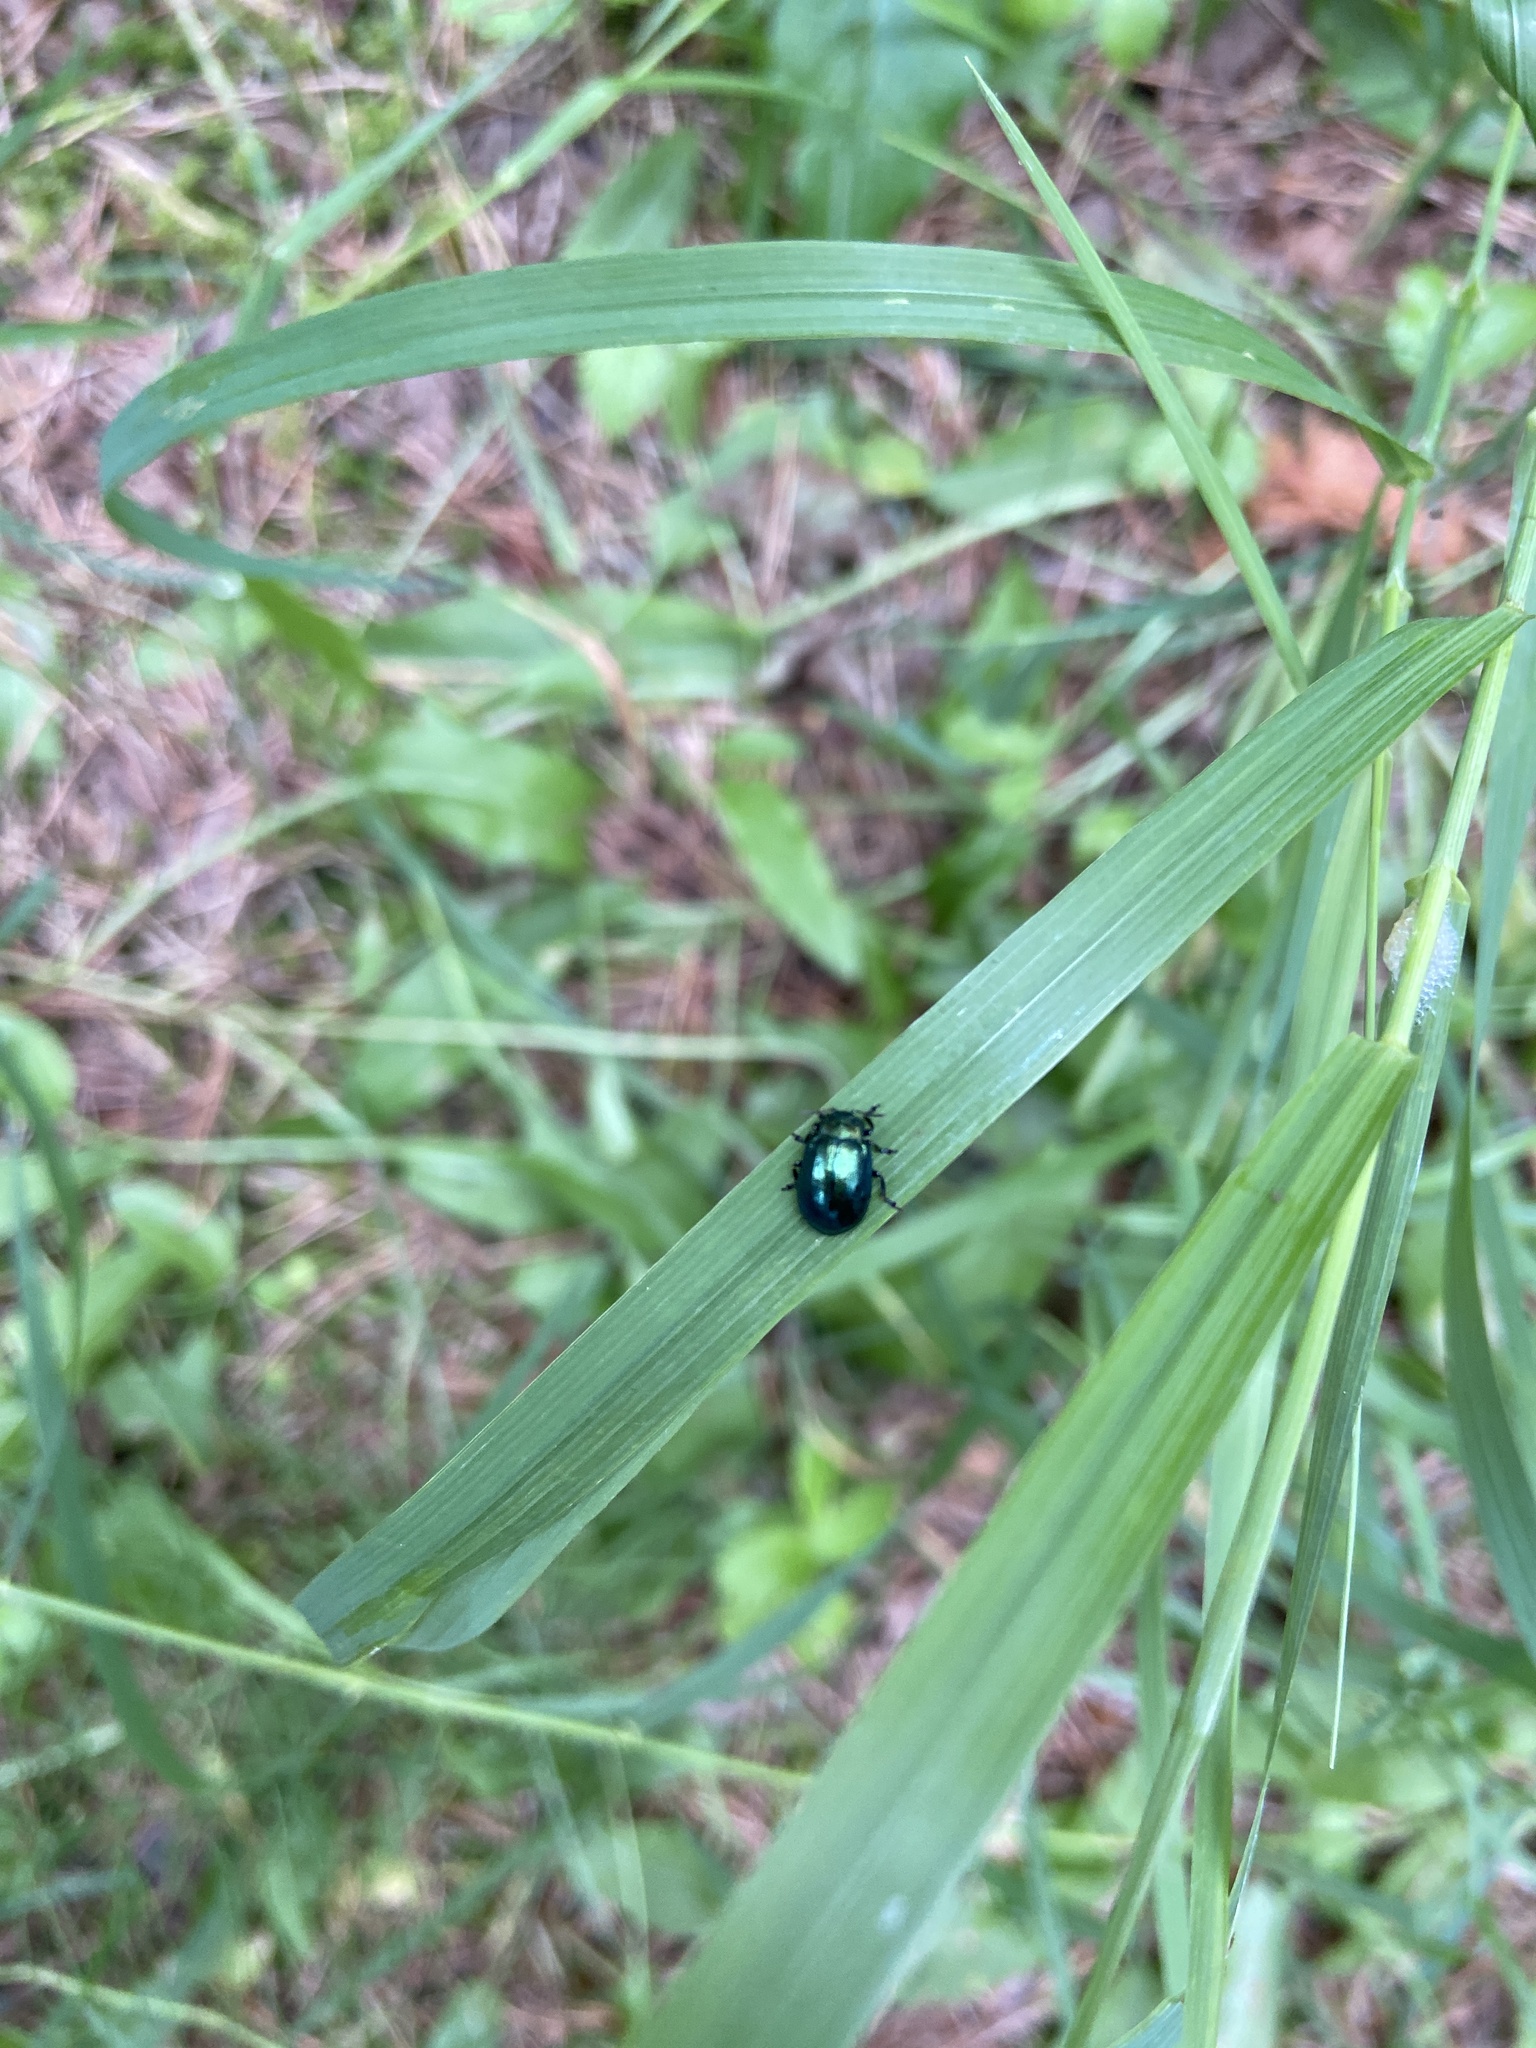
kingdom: Animalia
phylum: Arthropoda
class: Insecta
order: Coleoptera
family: Chrysomelidae
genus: Plagiosterna
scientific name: Plagiosterna aenea
